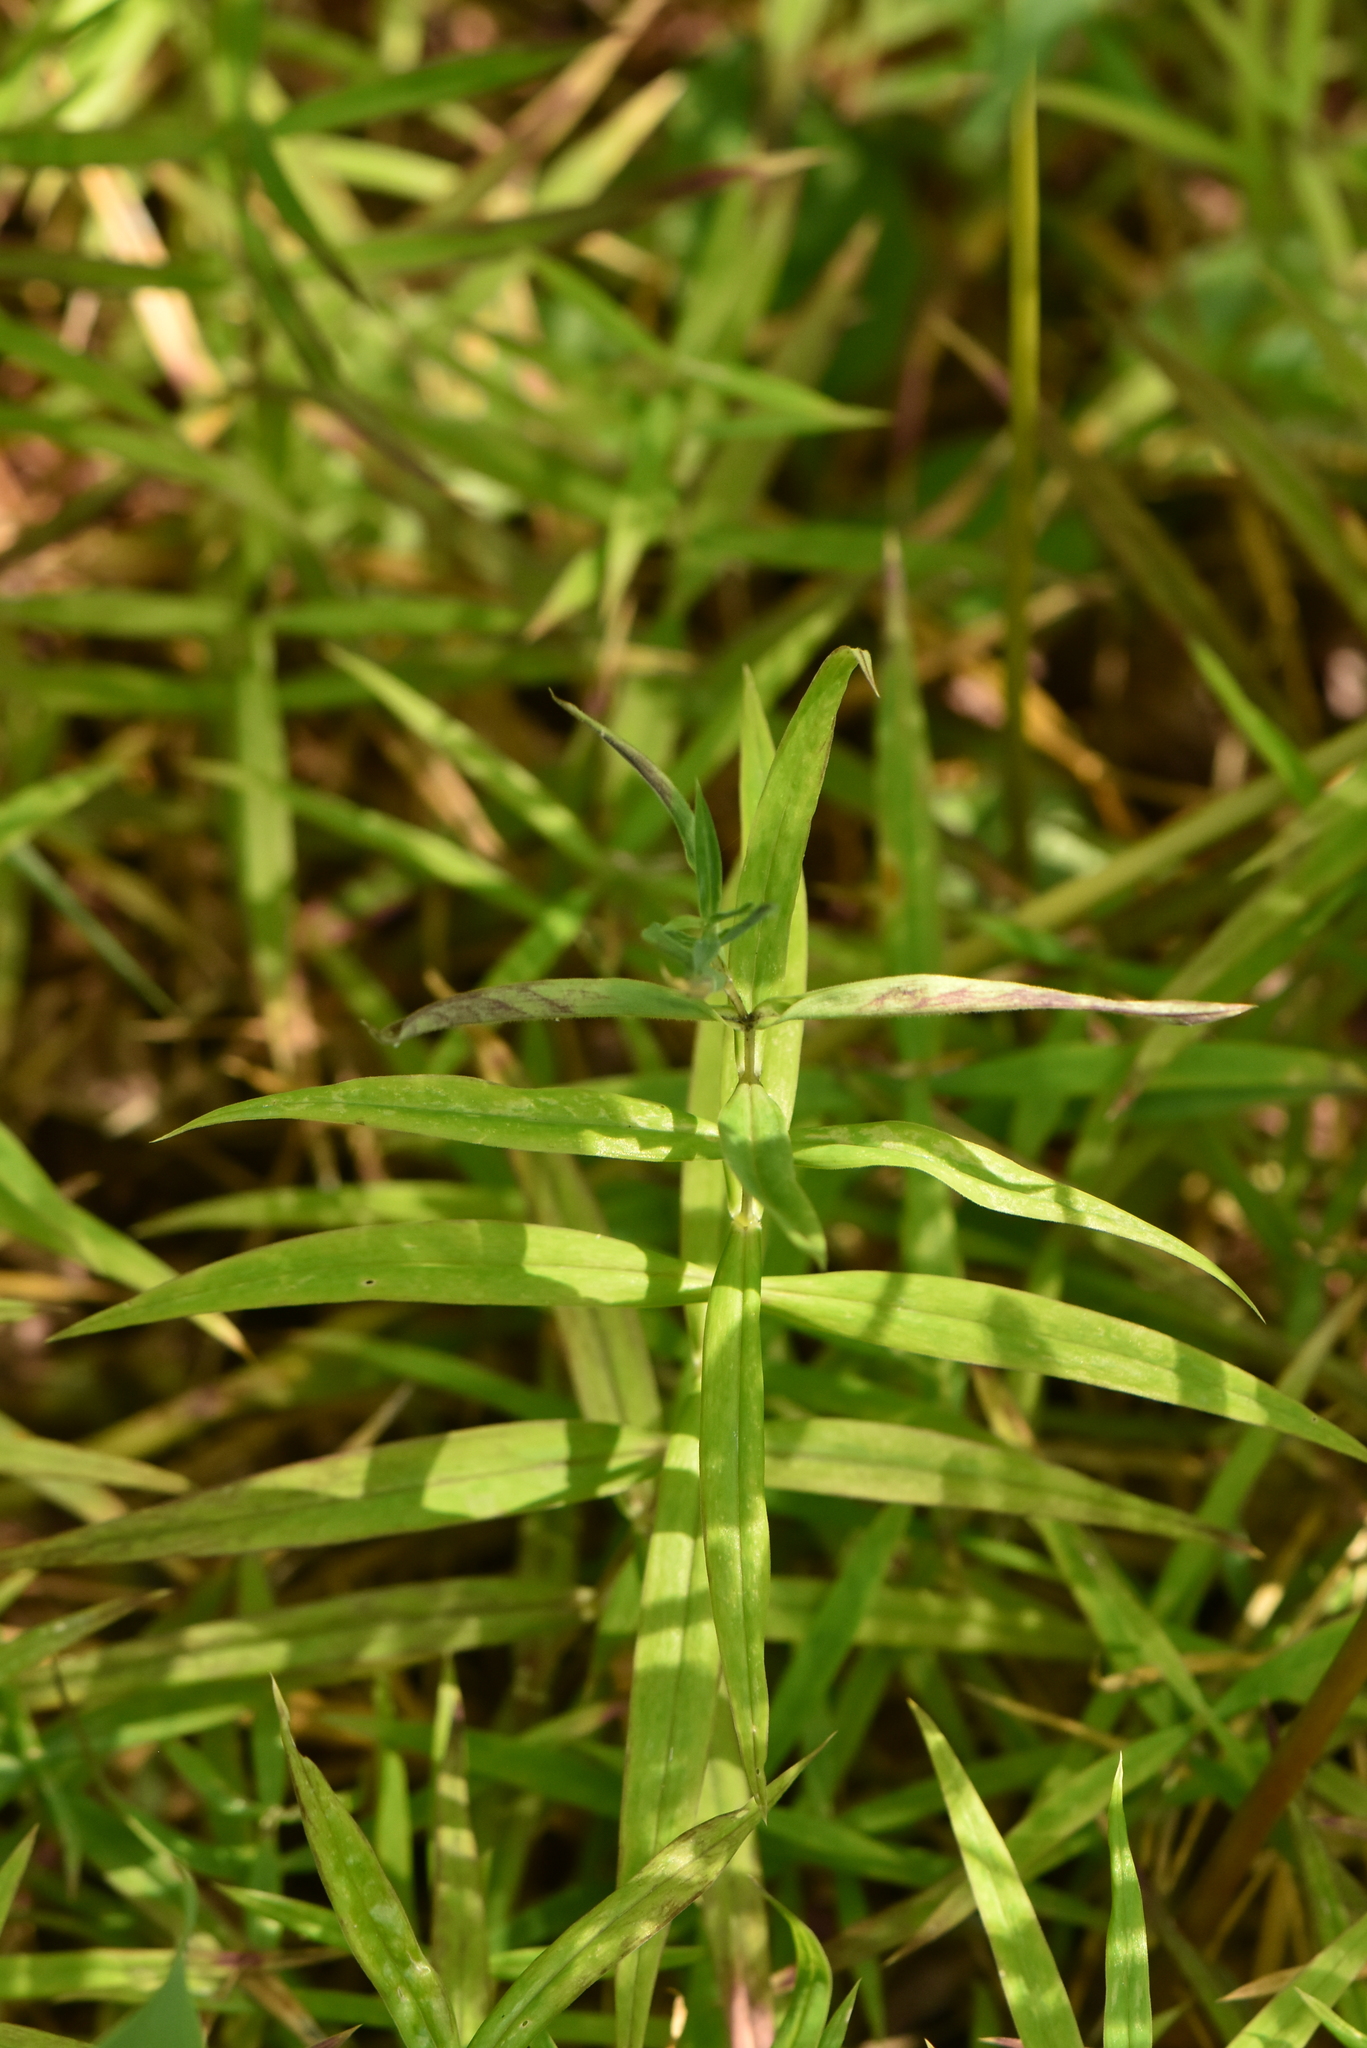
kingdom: Plantae
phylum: Tracheophyta
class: Magnoliopsida
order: Caryophyllales
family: Caryophyllaceae
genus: Rabelera
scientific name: Rabelera holostea
